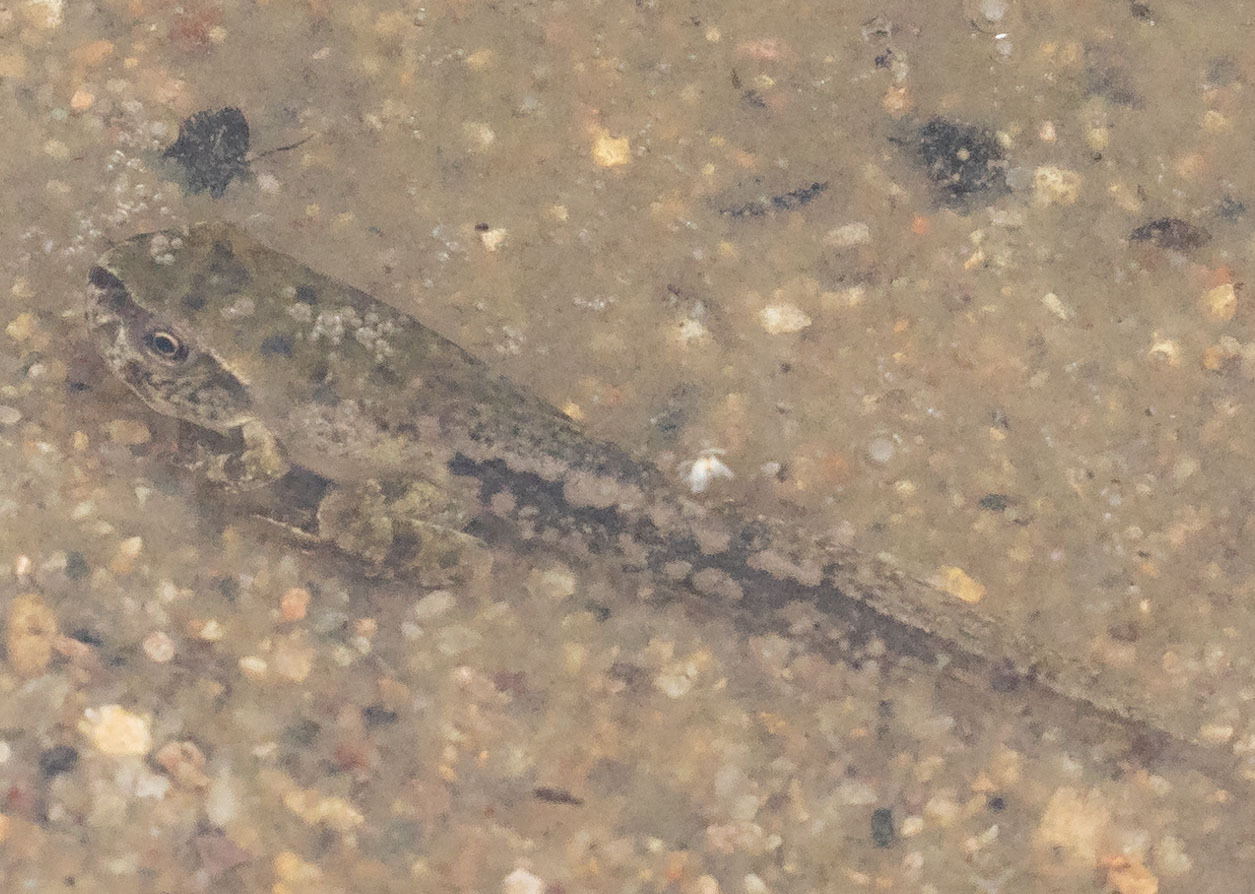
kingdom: Animalia
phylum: Chordata
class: Amphibia
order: Anura
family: Hylidae
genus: Pseudacris
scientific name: Pseudacris regilla
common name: Pacific chorus frog
